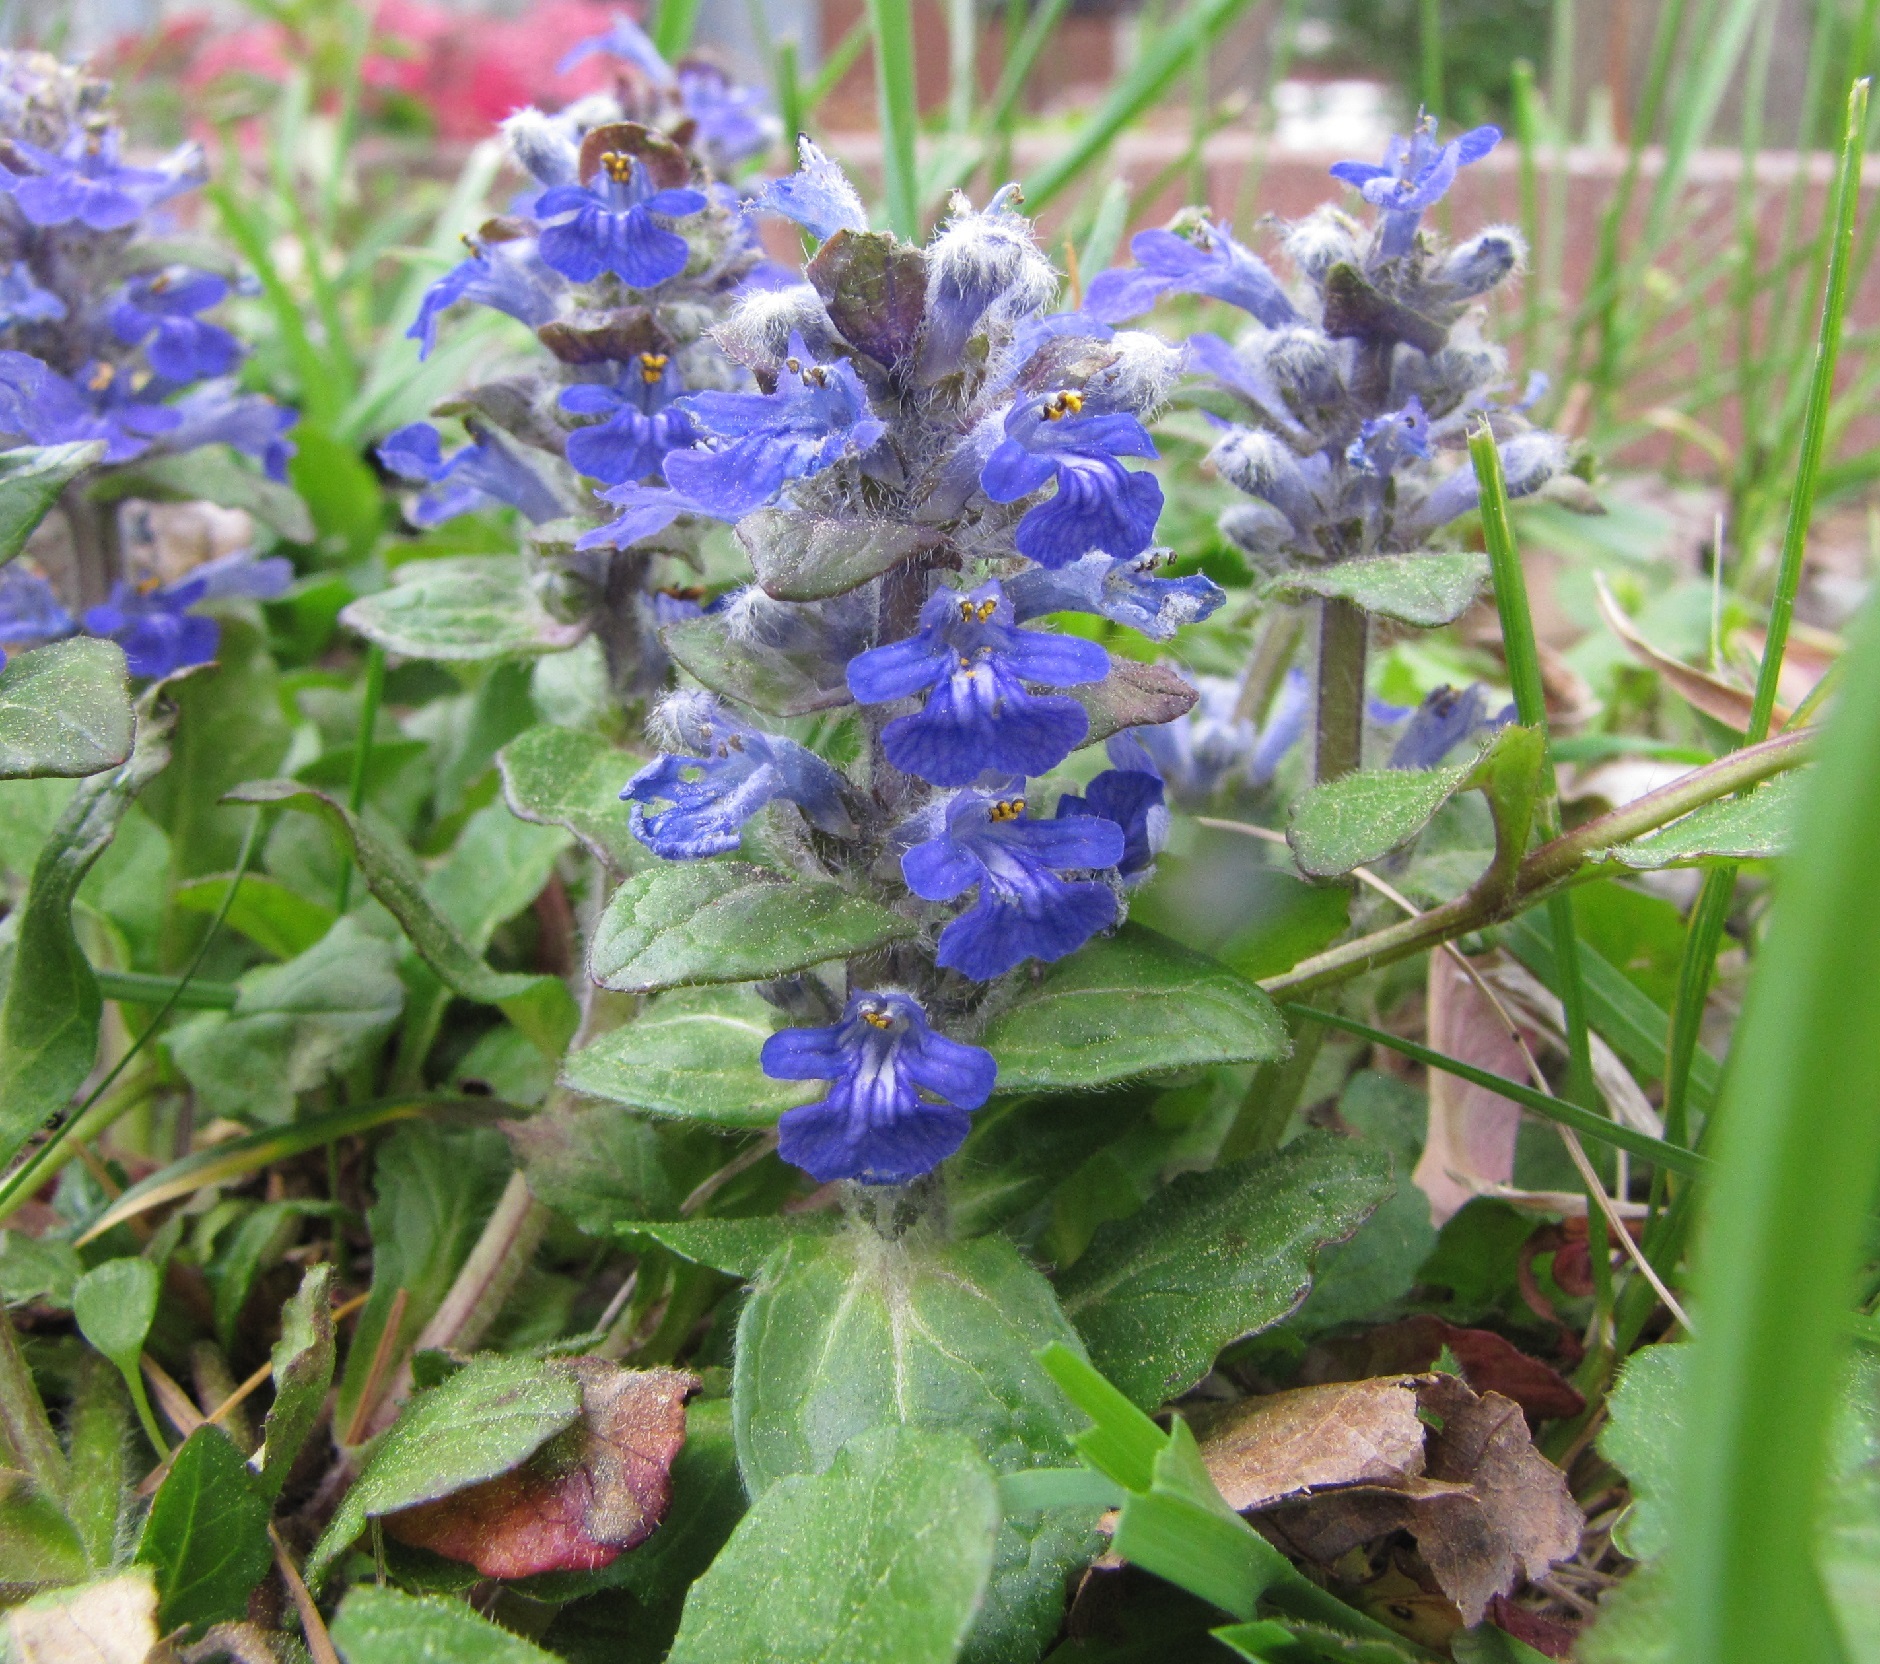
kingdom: Plantae
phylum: Tracheophyta
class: Magnoliopsida
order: Lamiales
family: Lamiaceae
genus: Ajuga
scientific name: Ajuga reptans
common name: Bugle
